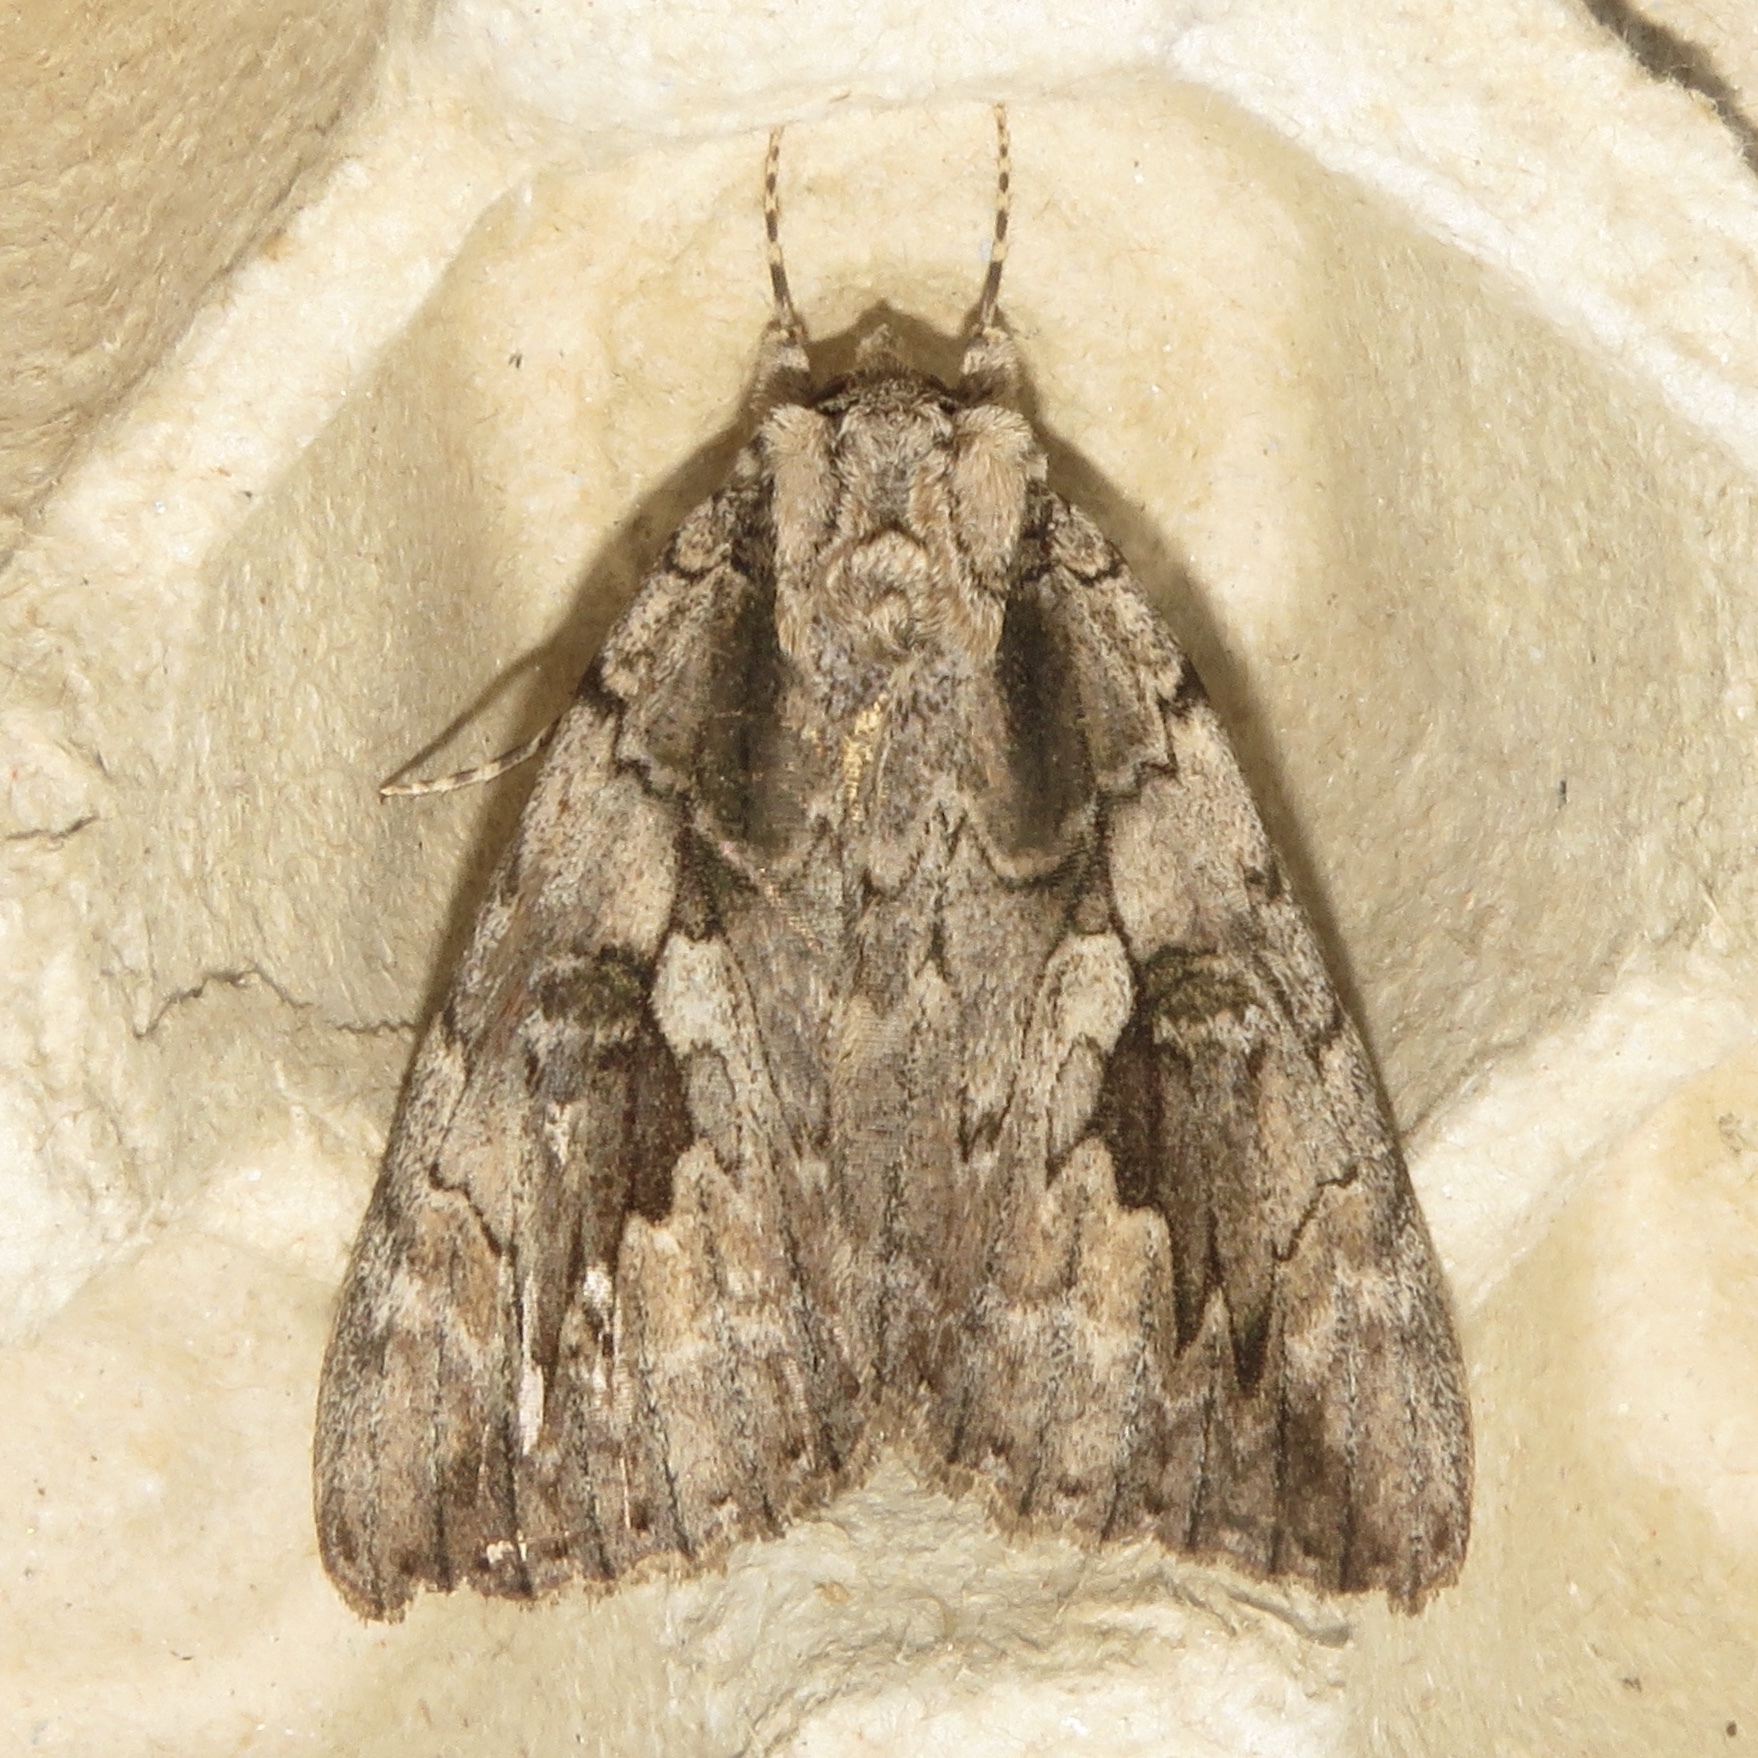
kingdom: Animalia
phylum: Arthropoda
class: Insecta
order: Lepidoptera
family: Erebidae
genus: Catocala
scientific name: Catocala amatrix
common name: Sweetheart underwing
